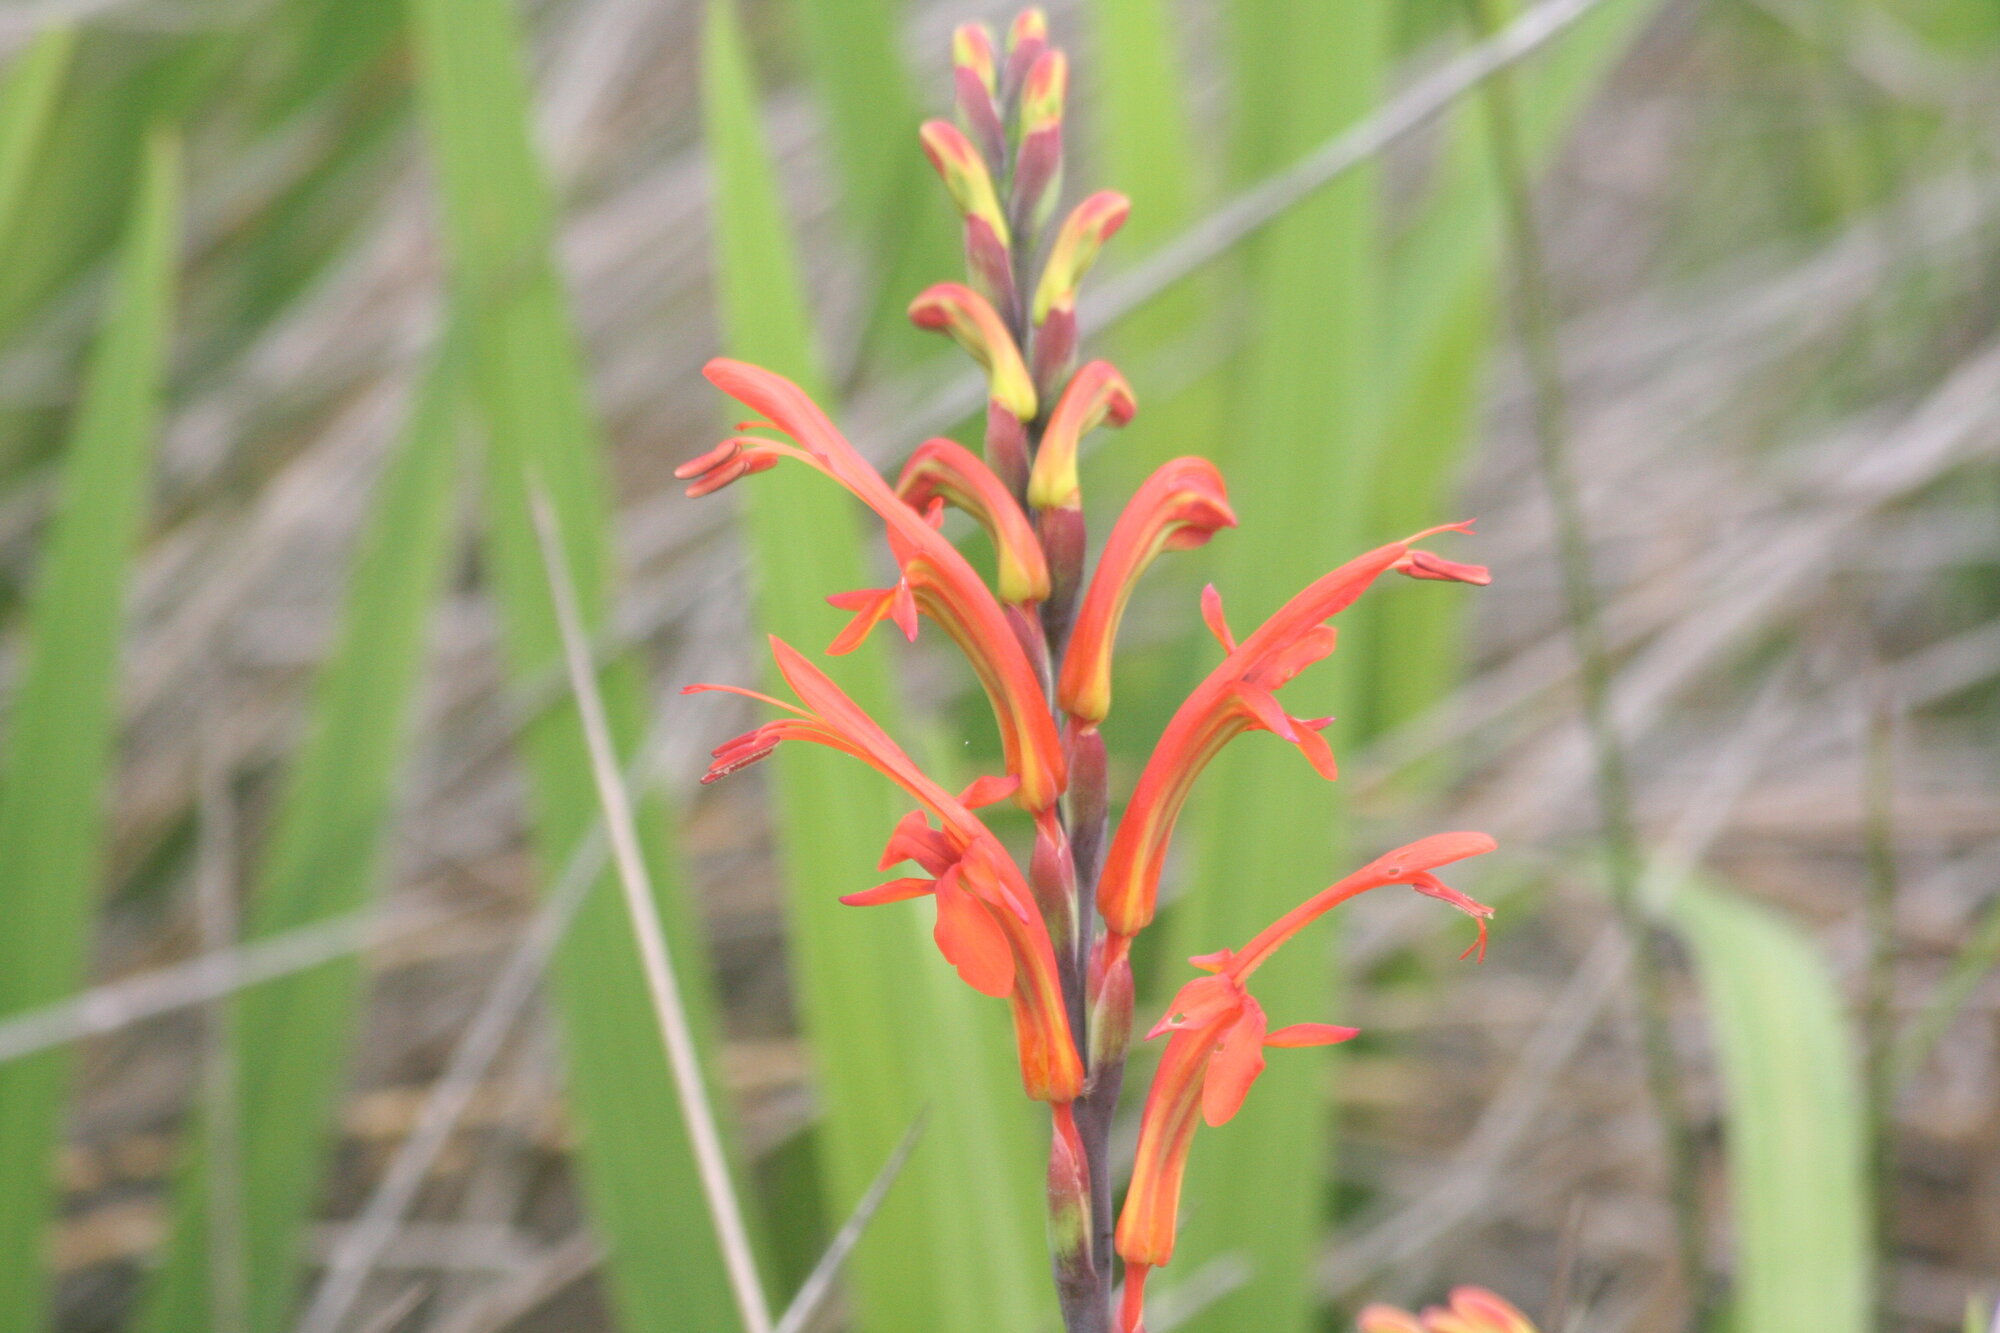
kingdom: Plantae
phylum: Tracheophyta
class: Liliopsida
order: Asparagales
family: Iridaceae
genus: Chasmanthe
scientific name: Chasmanthe aethiopica
